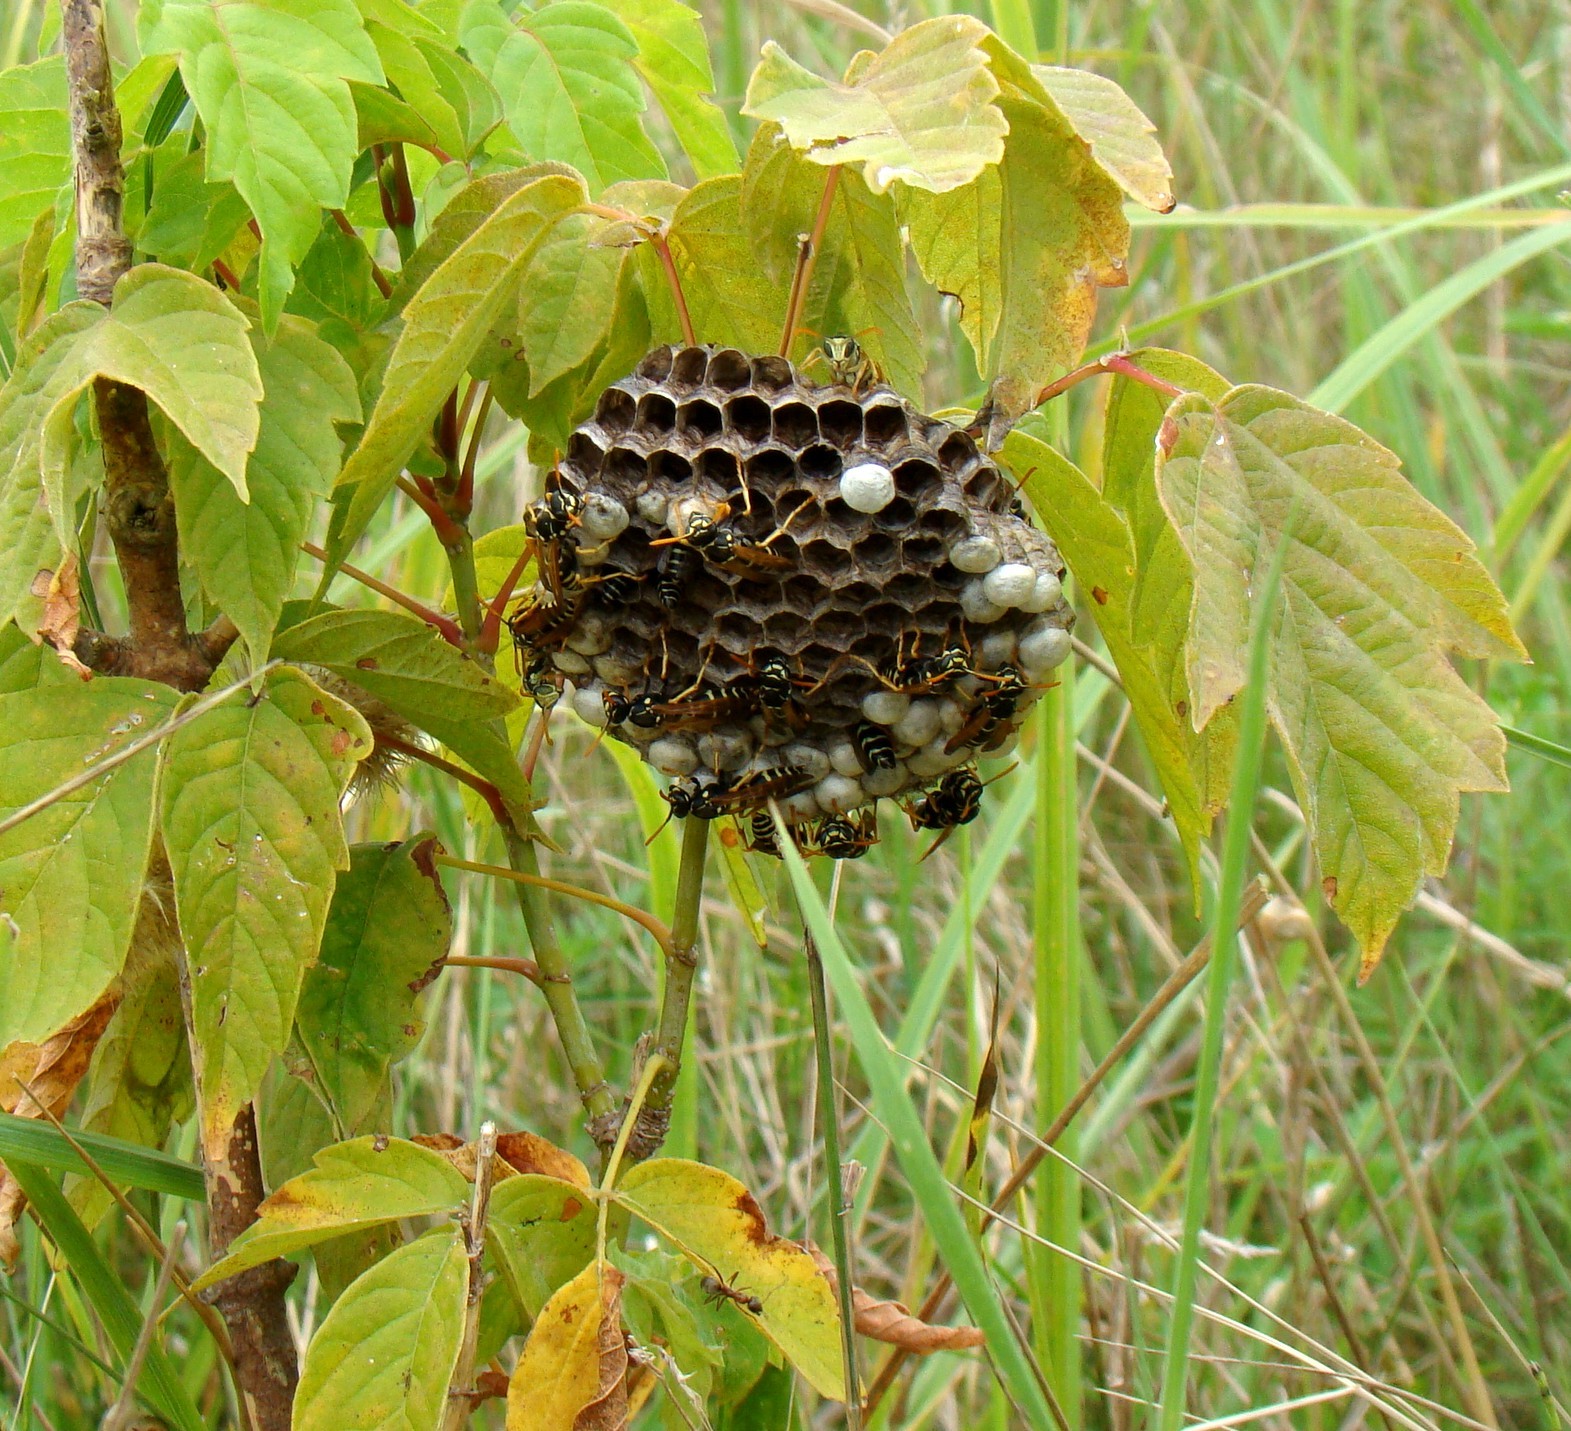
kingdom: Animalia
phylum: Arthropoda
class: Insecta
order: Hymenoptera
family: Eumenidae
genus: Polistes
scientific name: Polistes nimpha
